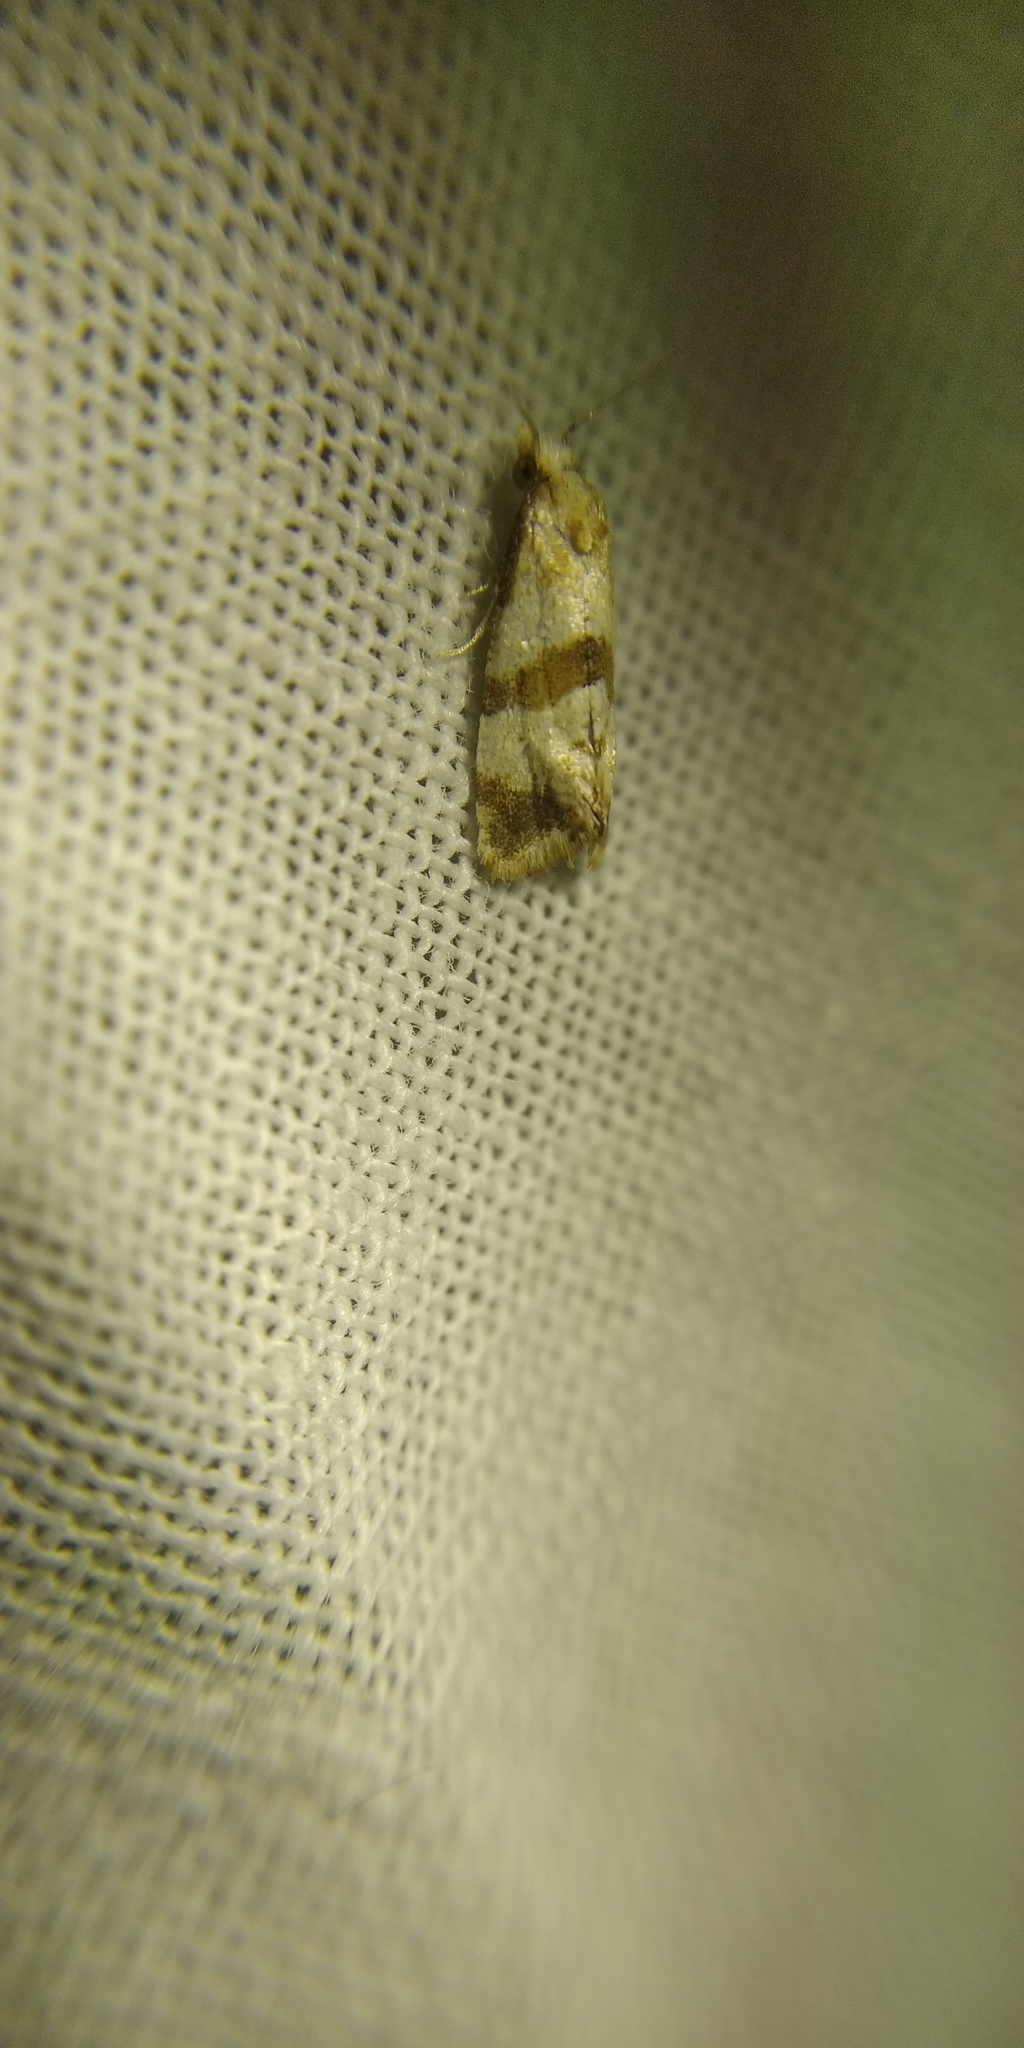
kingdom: Animalia
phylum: Arthropoda
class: Insecta
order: Lepidoptera
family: Tortricidae
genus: Phalonidia
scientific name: Phalonidia contractana
